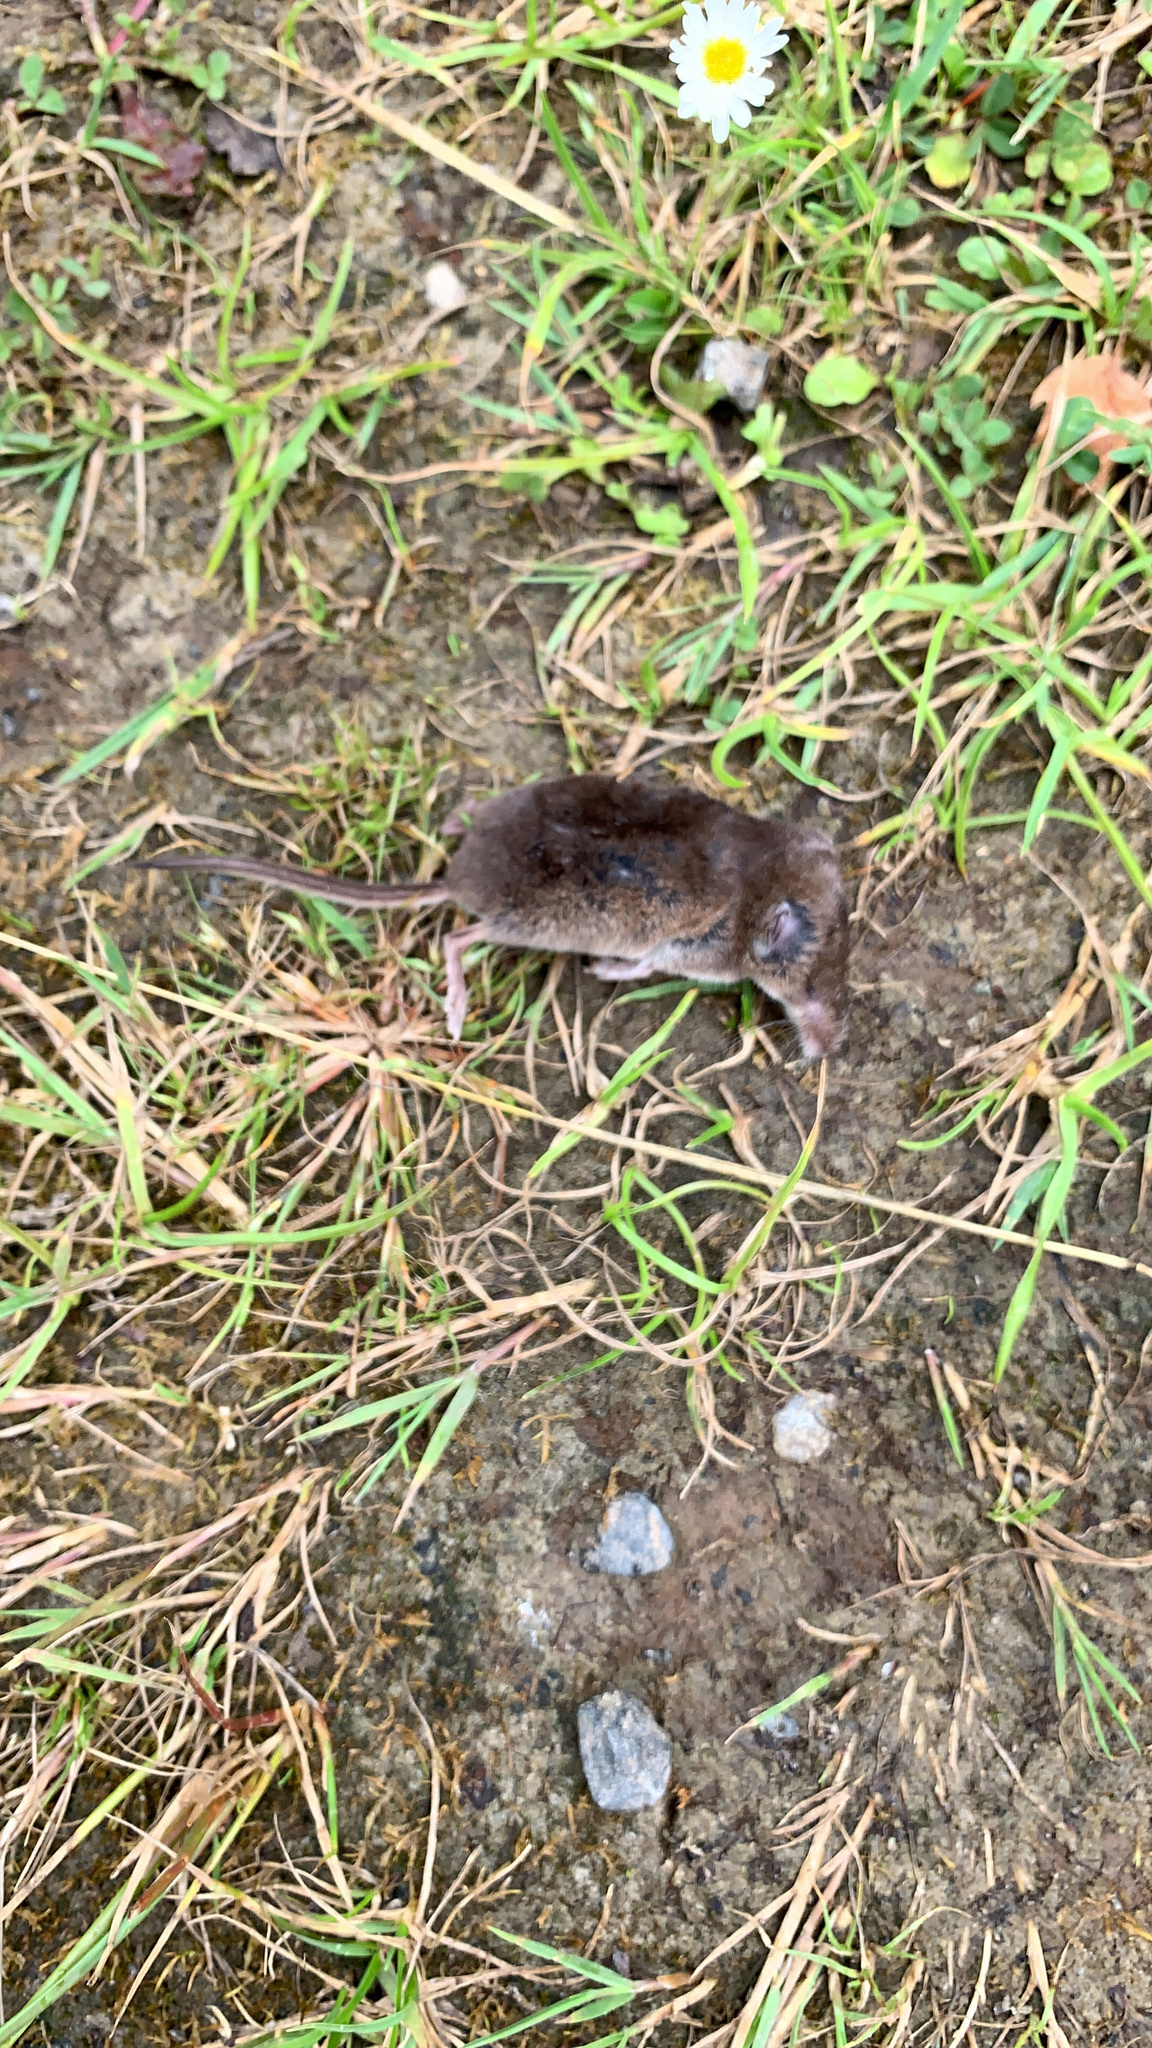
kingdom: Animalia
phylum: Chordata
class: Mammalia
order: Soricomorpha
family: Soricidae
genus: Sorex
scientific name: Sorex araneus
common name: Common shrew
